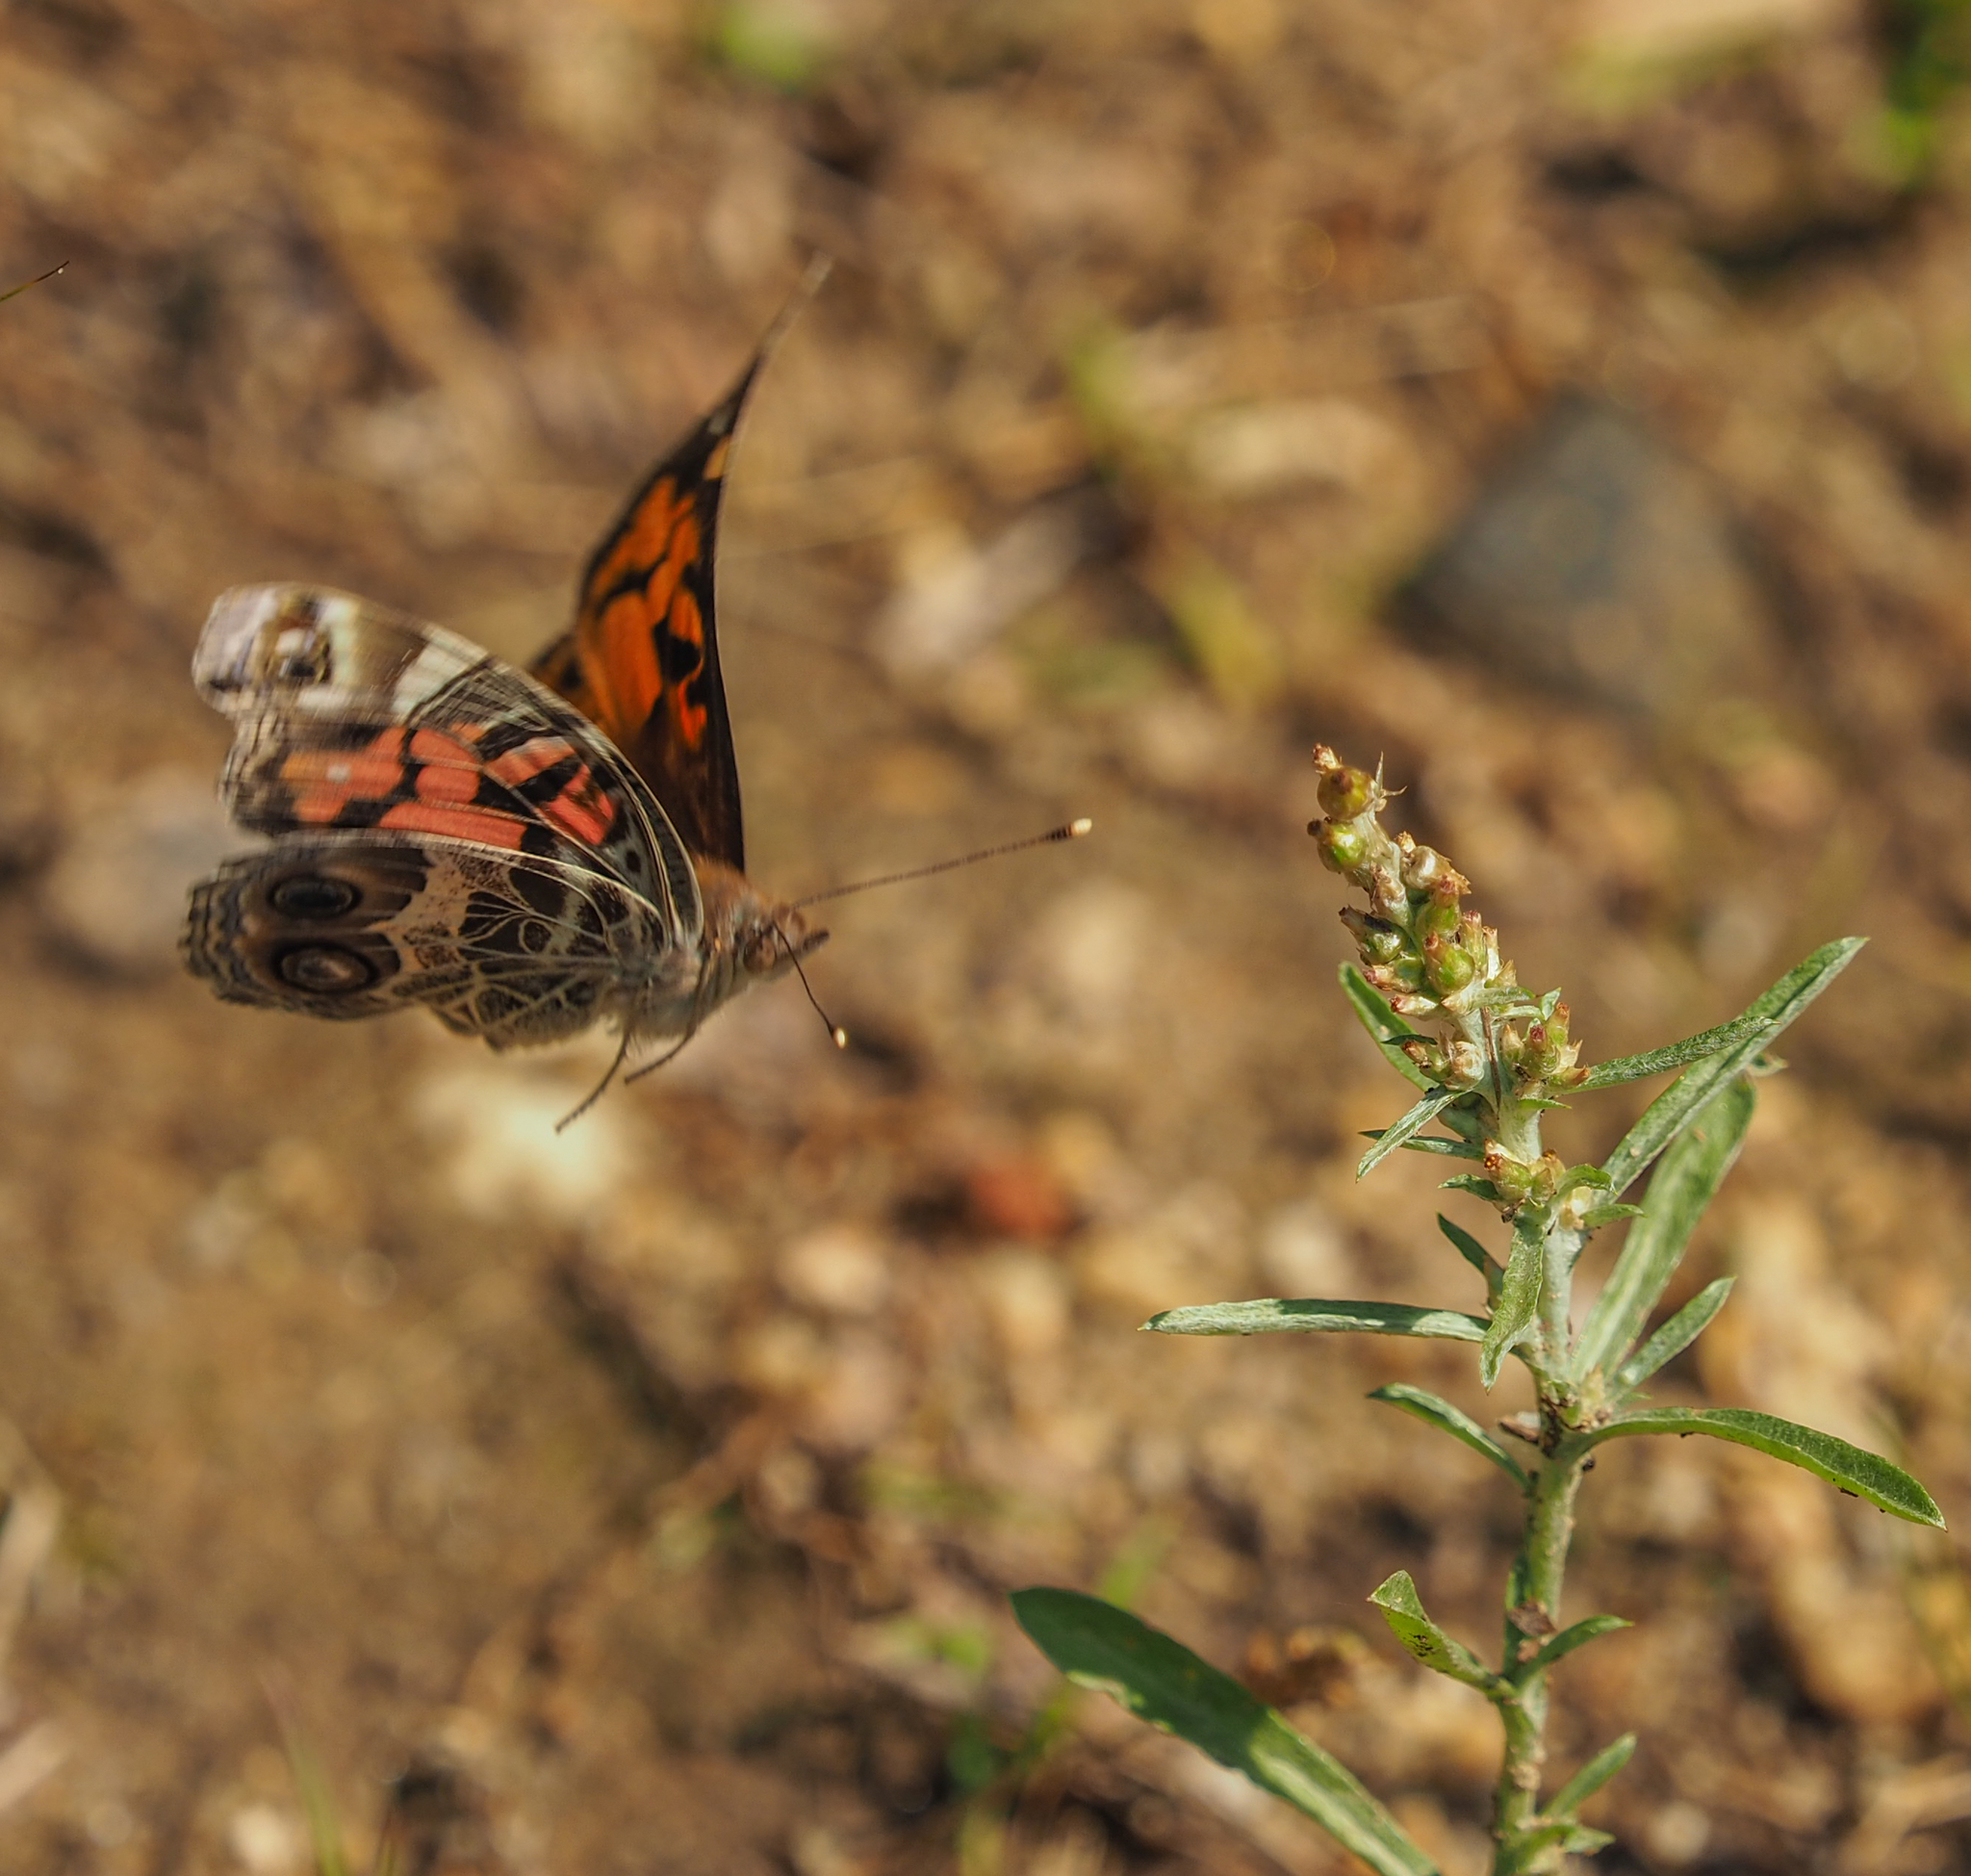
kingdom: Animalia
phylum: Arthropoda
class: Insecta
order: Lepidoptera
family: Nymphalidae
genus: Vanessa
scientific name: Vanessa virginiensis
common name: American lady
